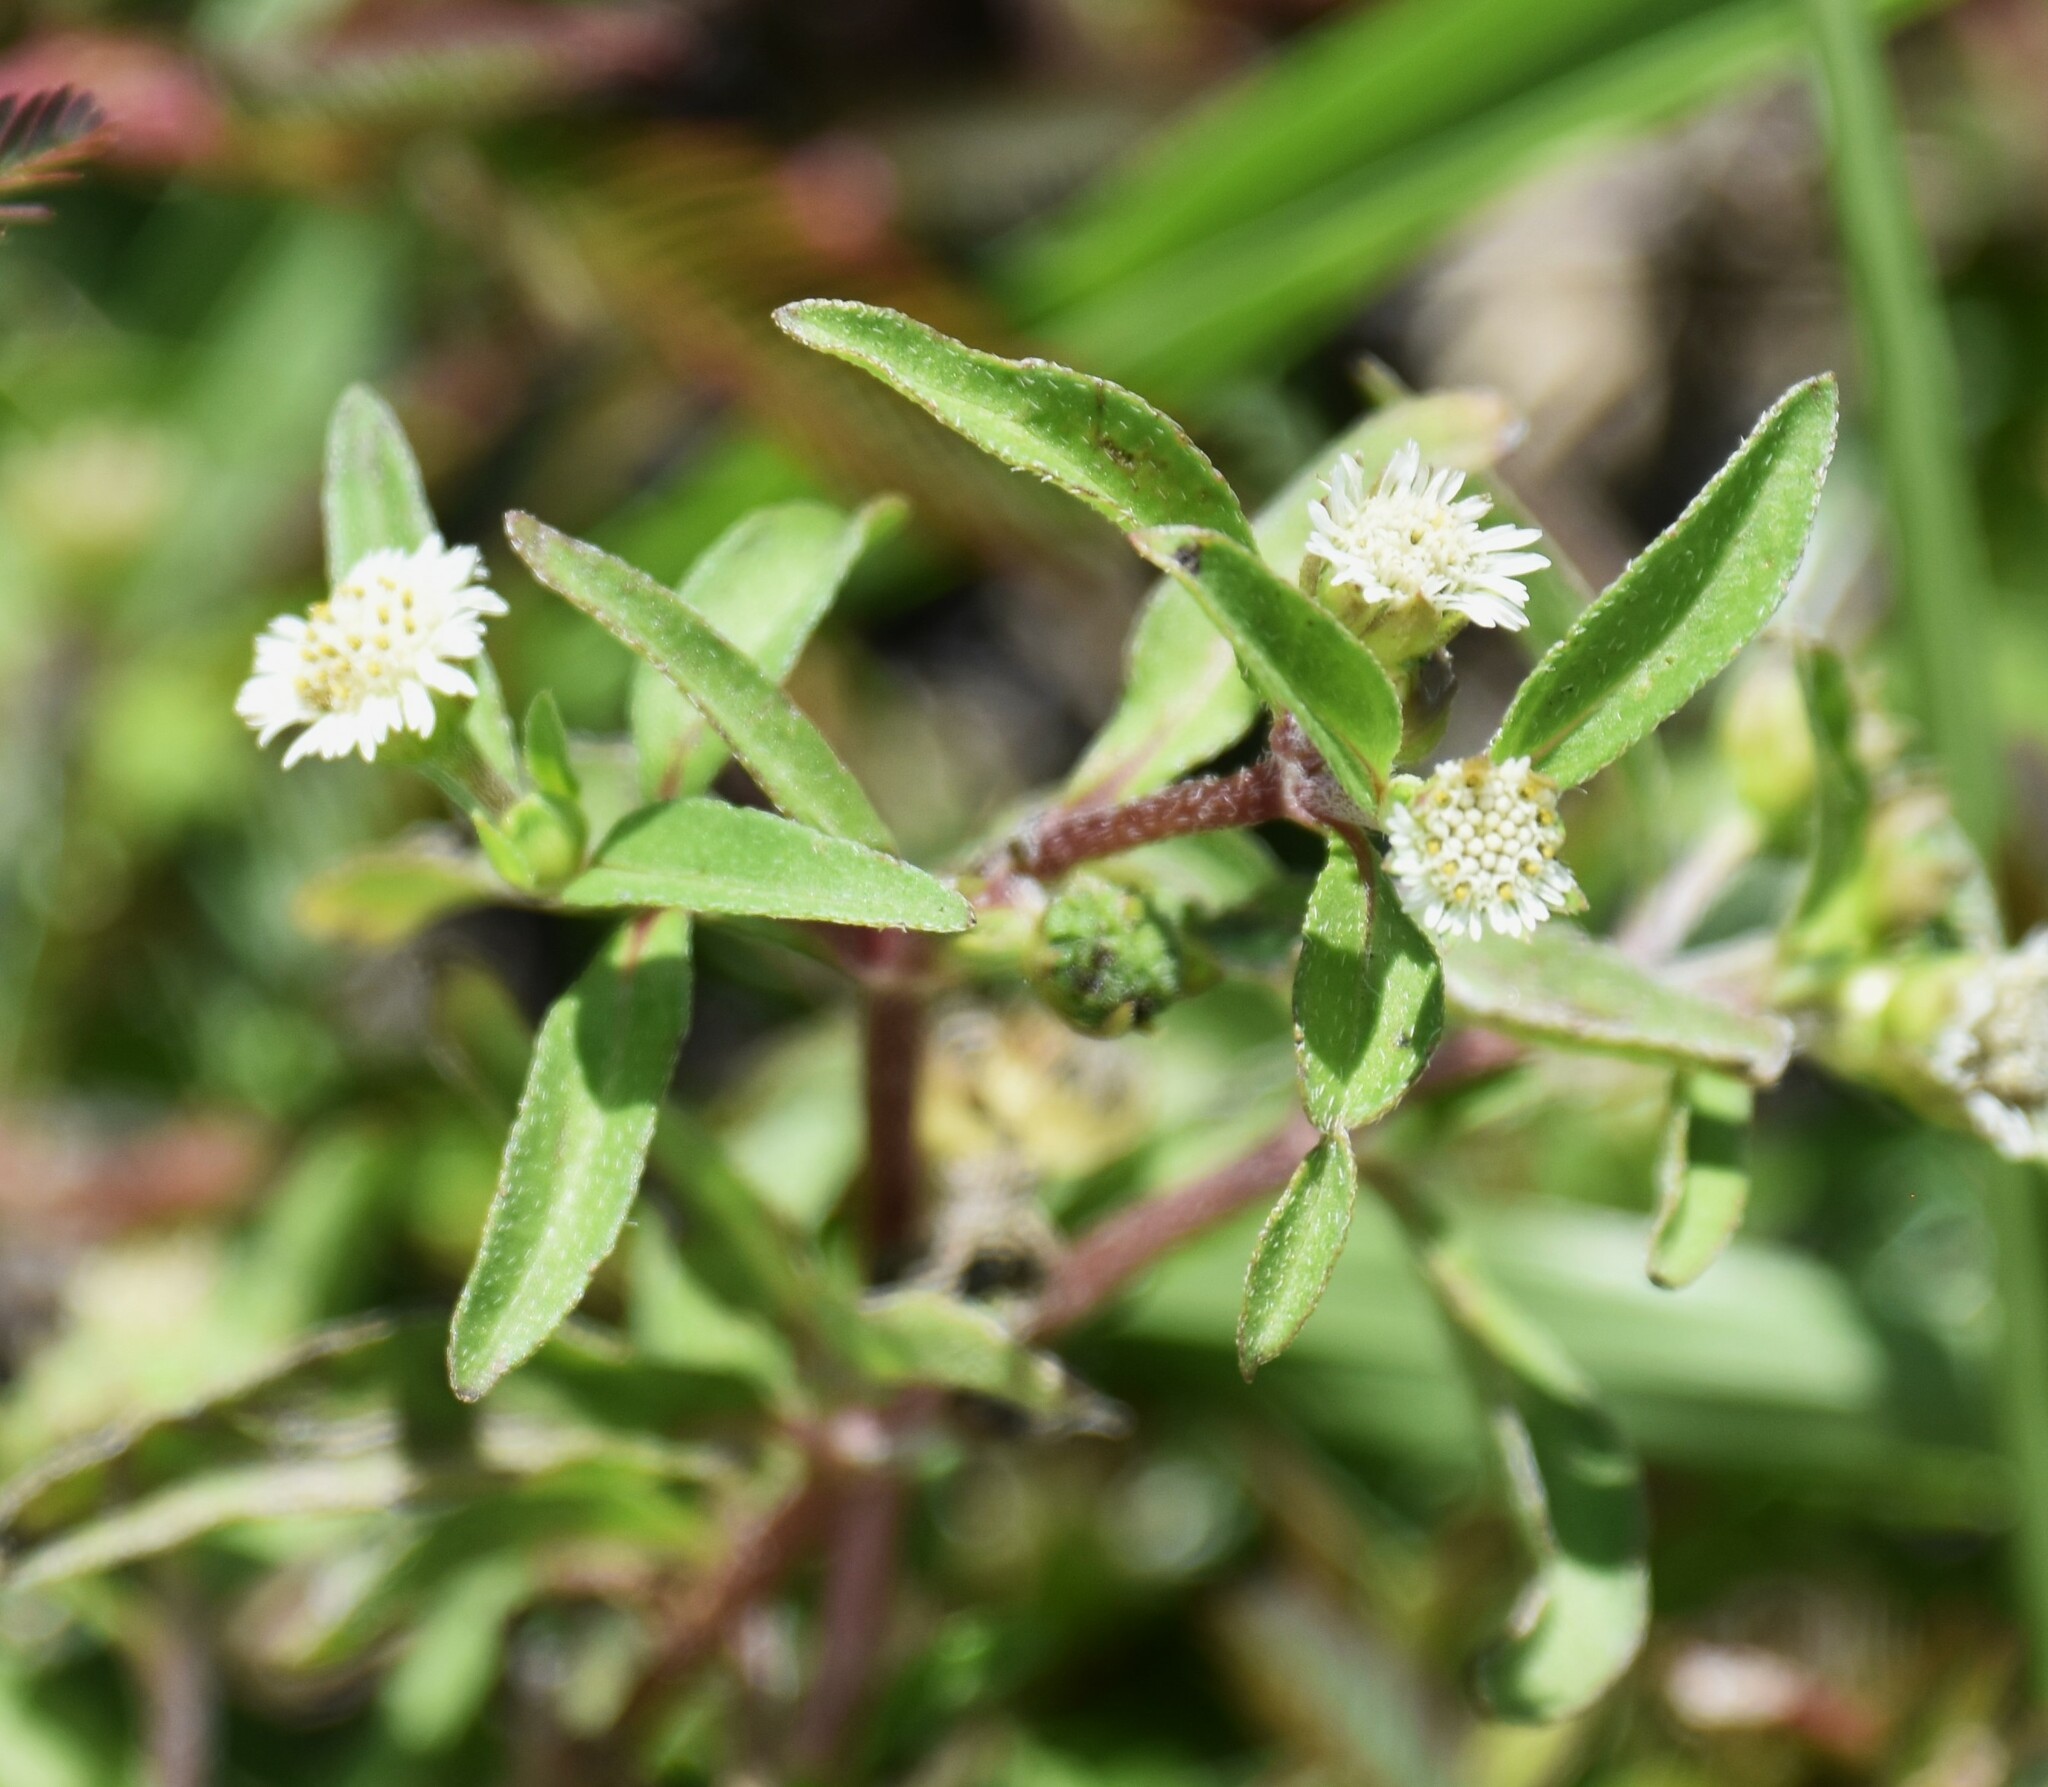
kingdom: Plantae
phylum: Tracheophyta
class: Magnoliopsida
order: Asterales
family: Asteraceae
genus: Eclipta
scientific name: Eclipta prostrata
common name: False daisy
